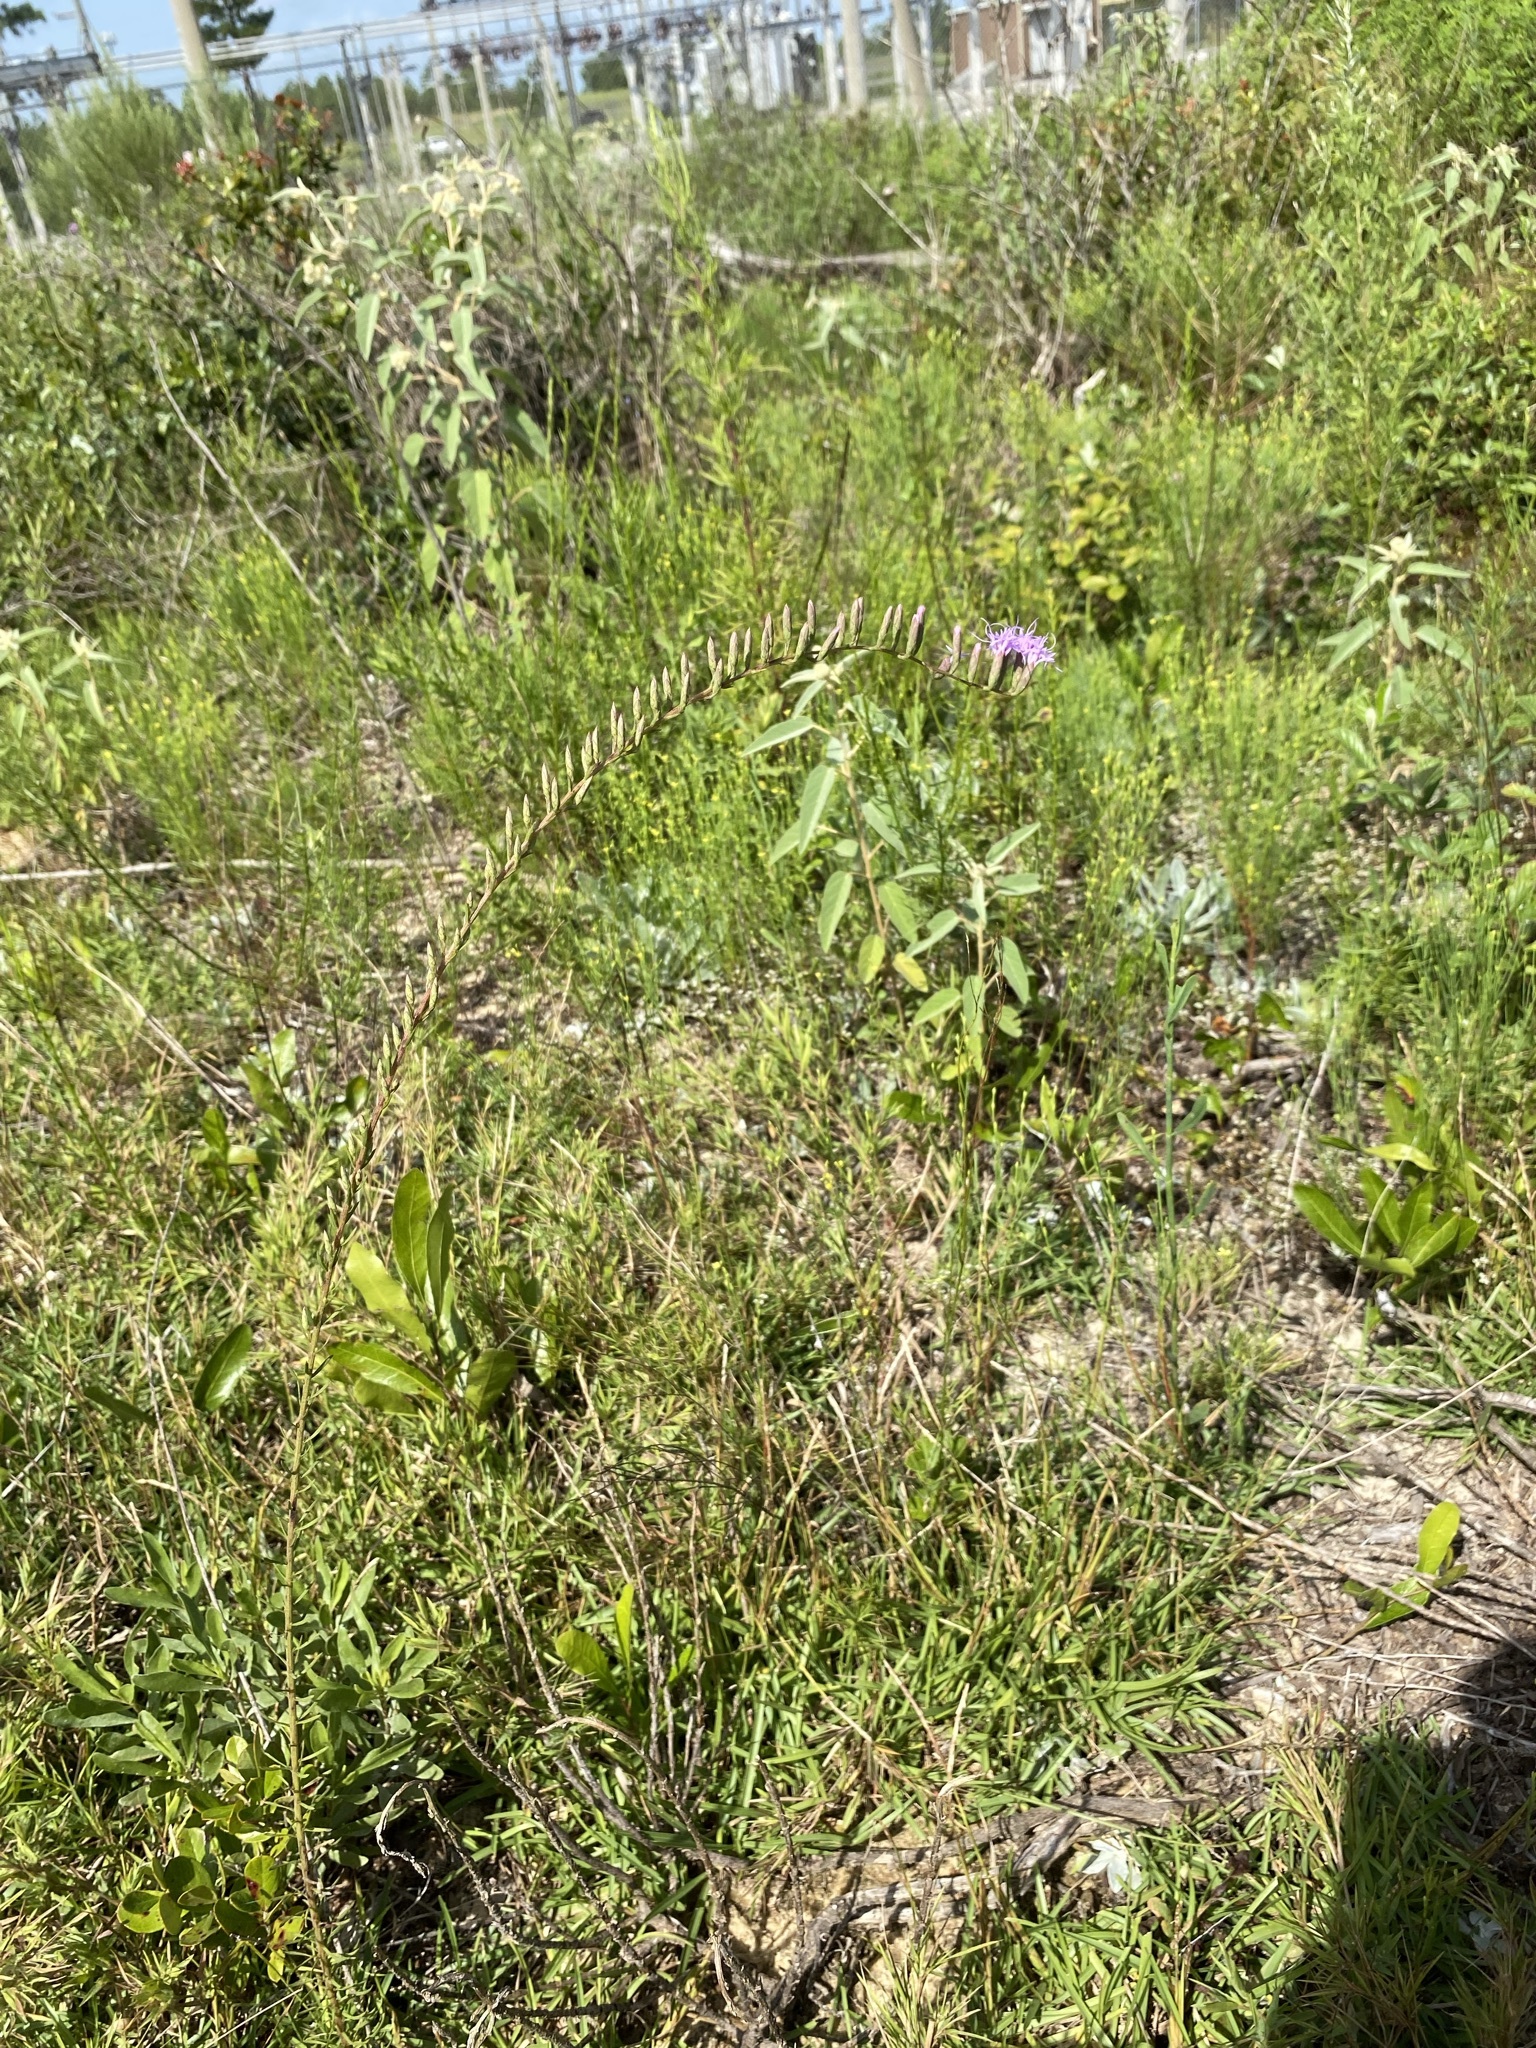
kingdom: Plantae
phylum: Tracheophyta
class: Magnoliopsida
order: Asterales
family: Asteraceae
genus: Liatris
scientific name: Liatris pauciflora
